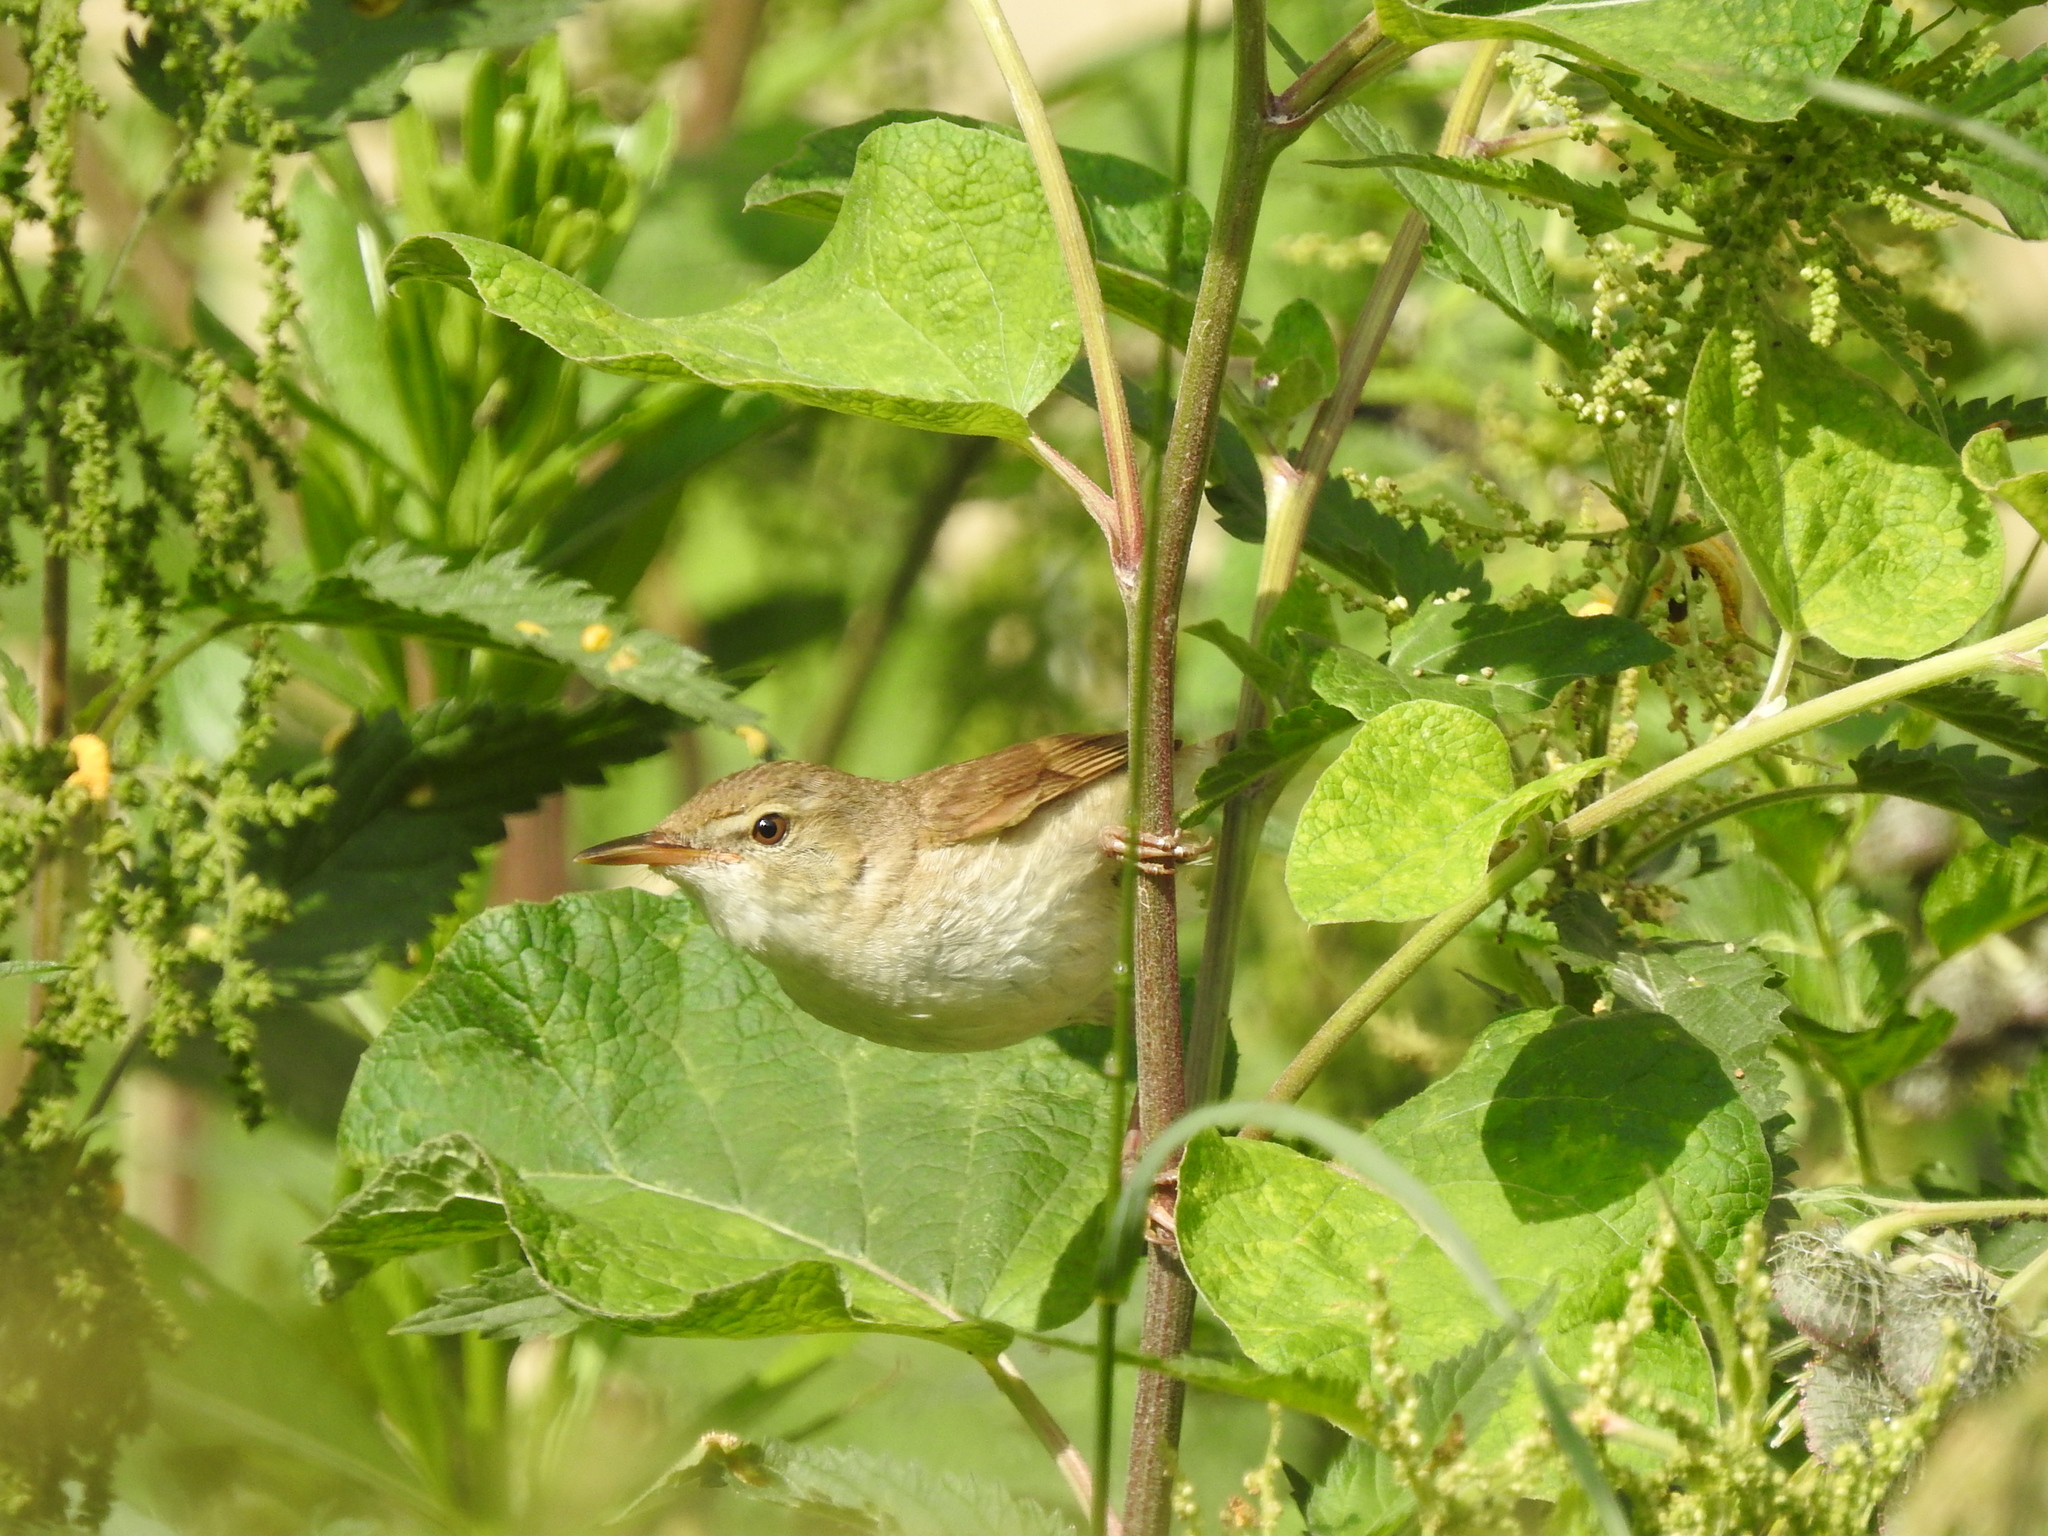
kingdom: Animalia
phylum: Chordata
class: Aves
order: Passeriformes
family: Acrocephalidae
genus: Acrocephalus
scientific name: Acrocephalus dumetorum
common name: Blyth's reed warbler
